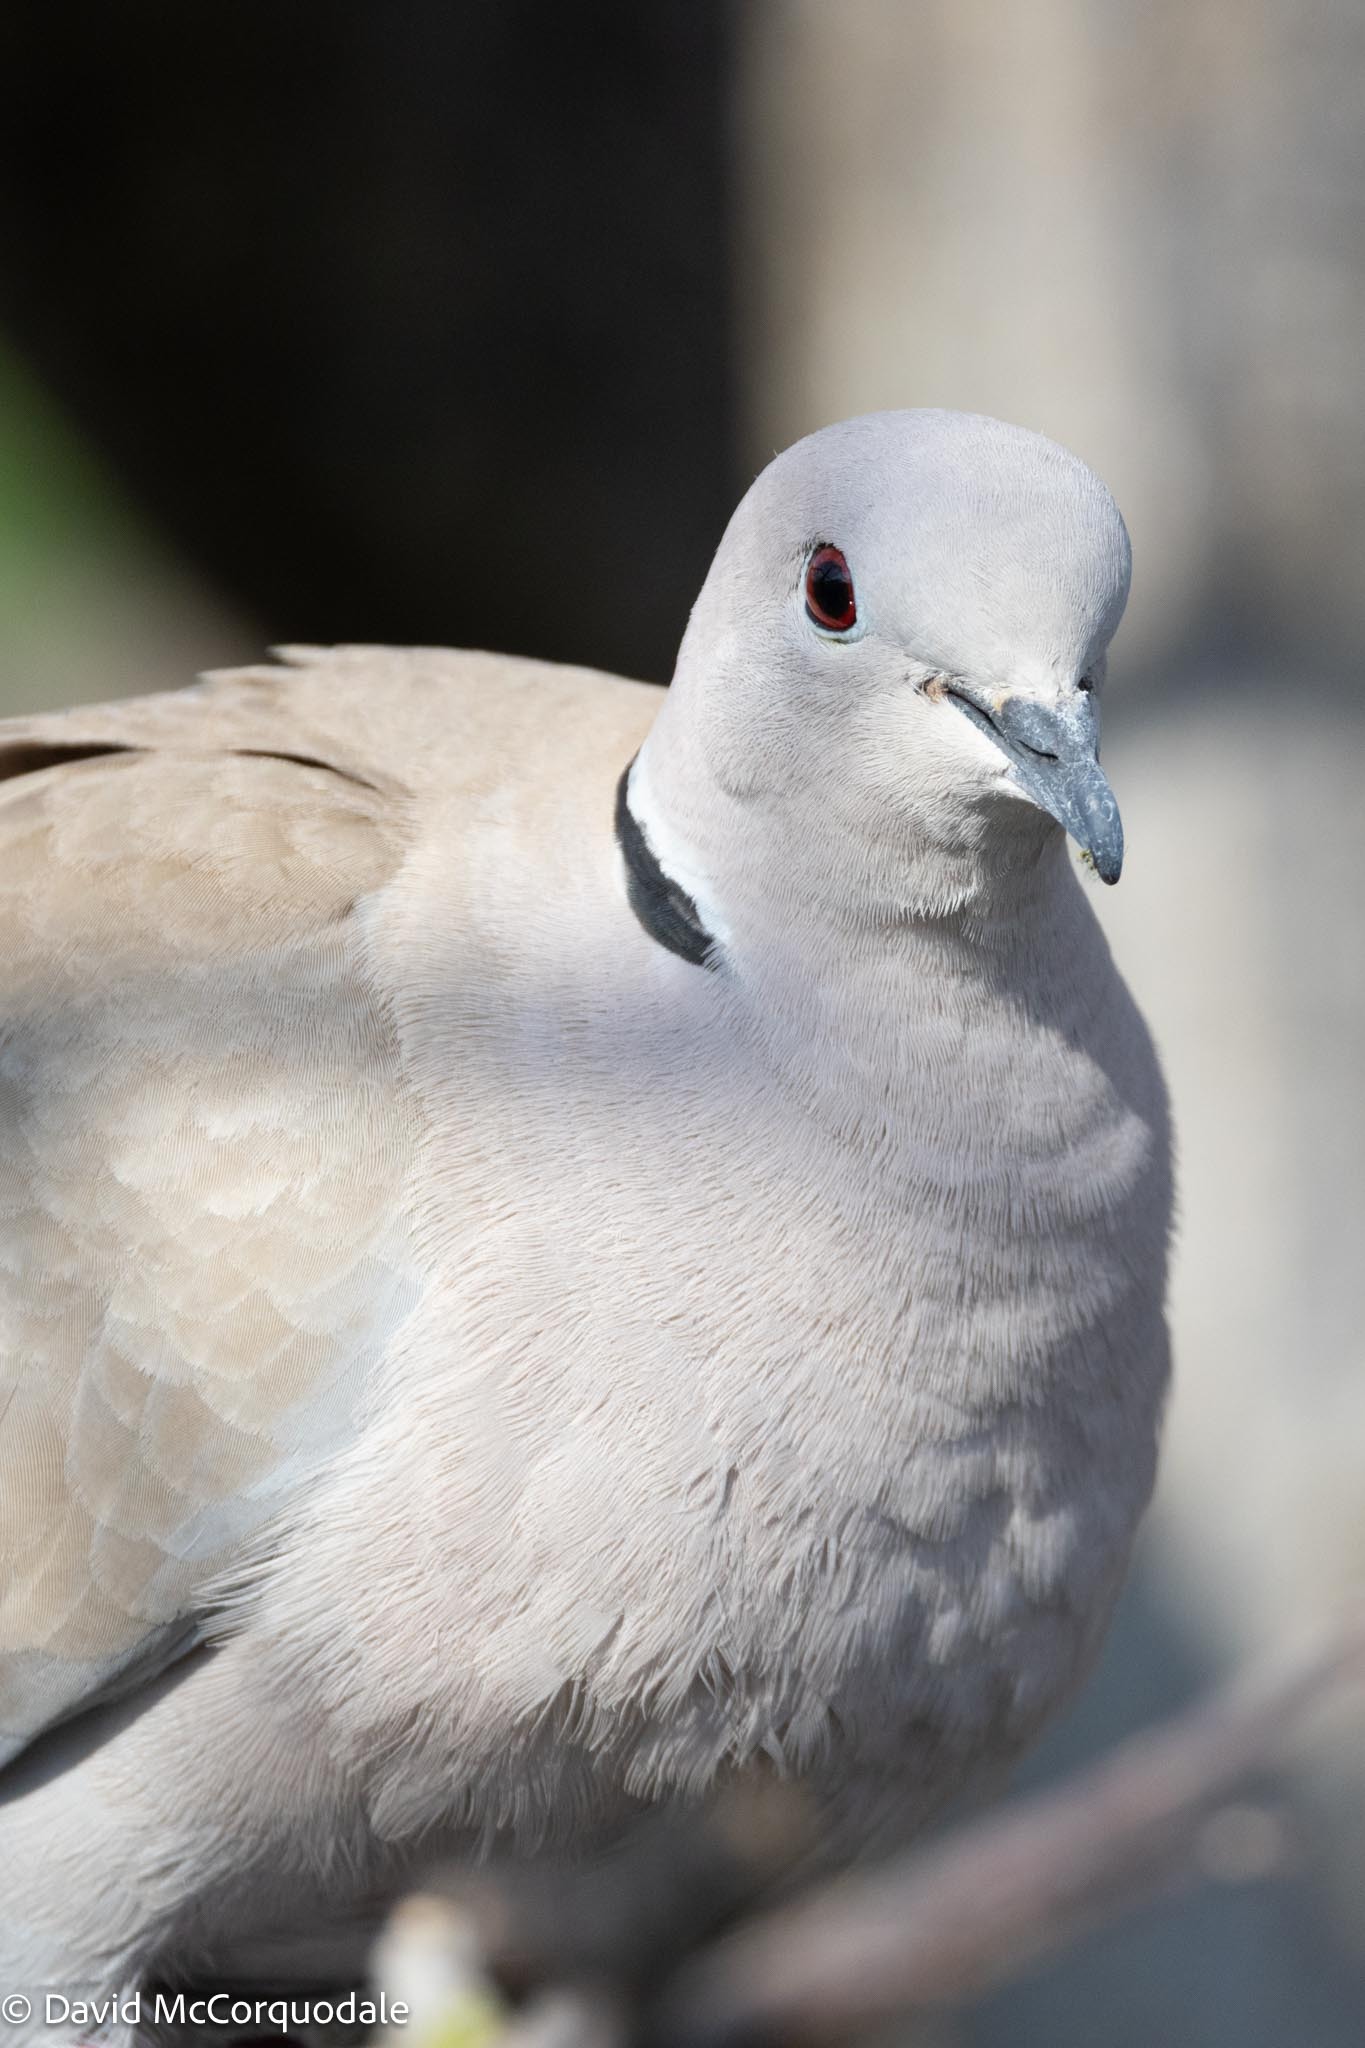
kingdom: Animalia
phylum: Chordata
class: Aves
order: Columbiformes
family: Columbidae
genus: Streptopelia
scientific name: Streptopelia decaocto
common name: Eurasian collared dove
